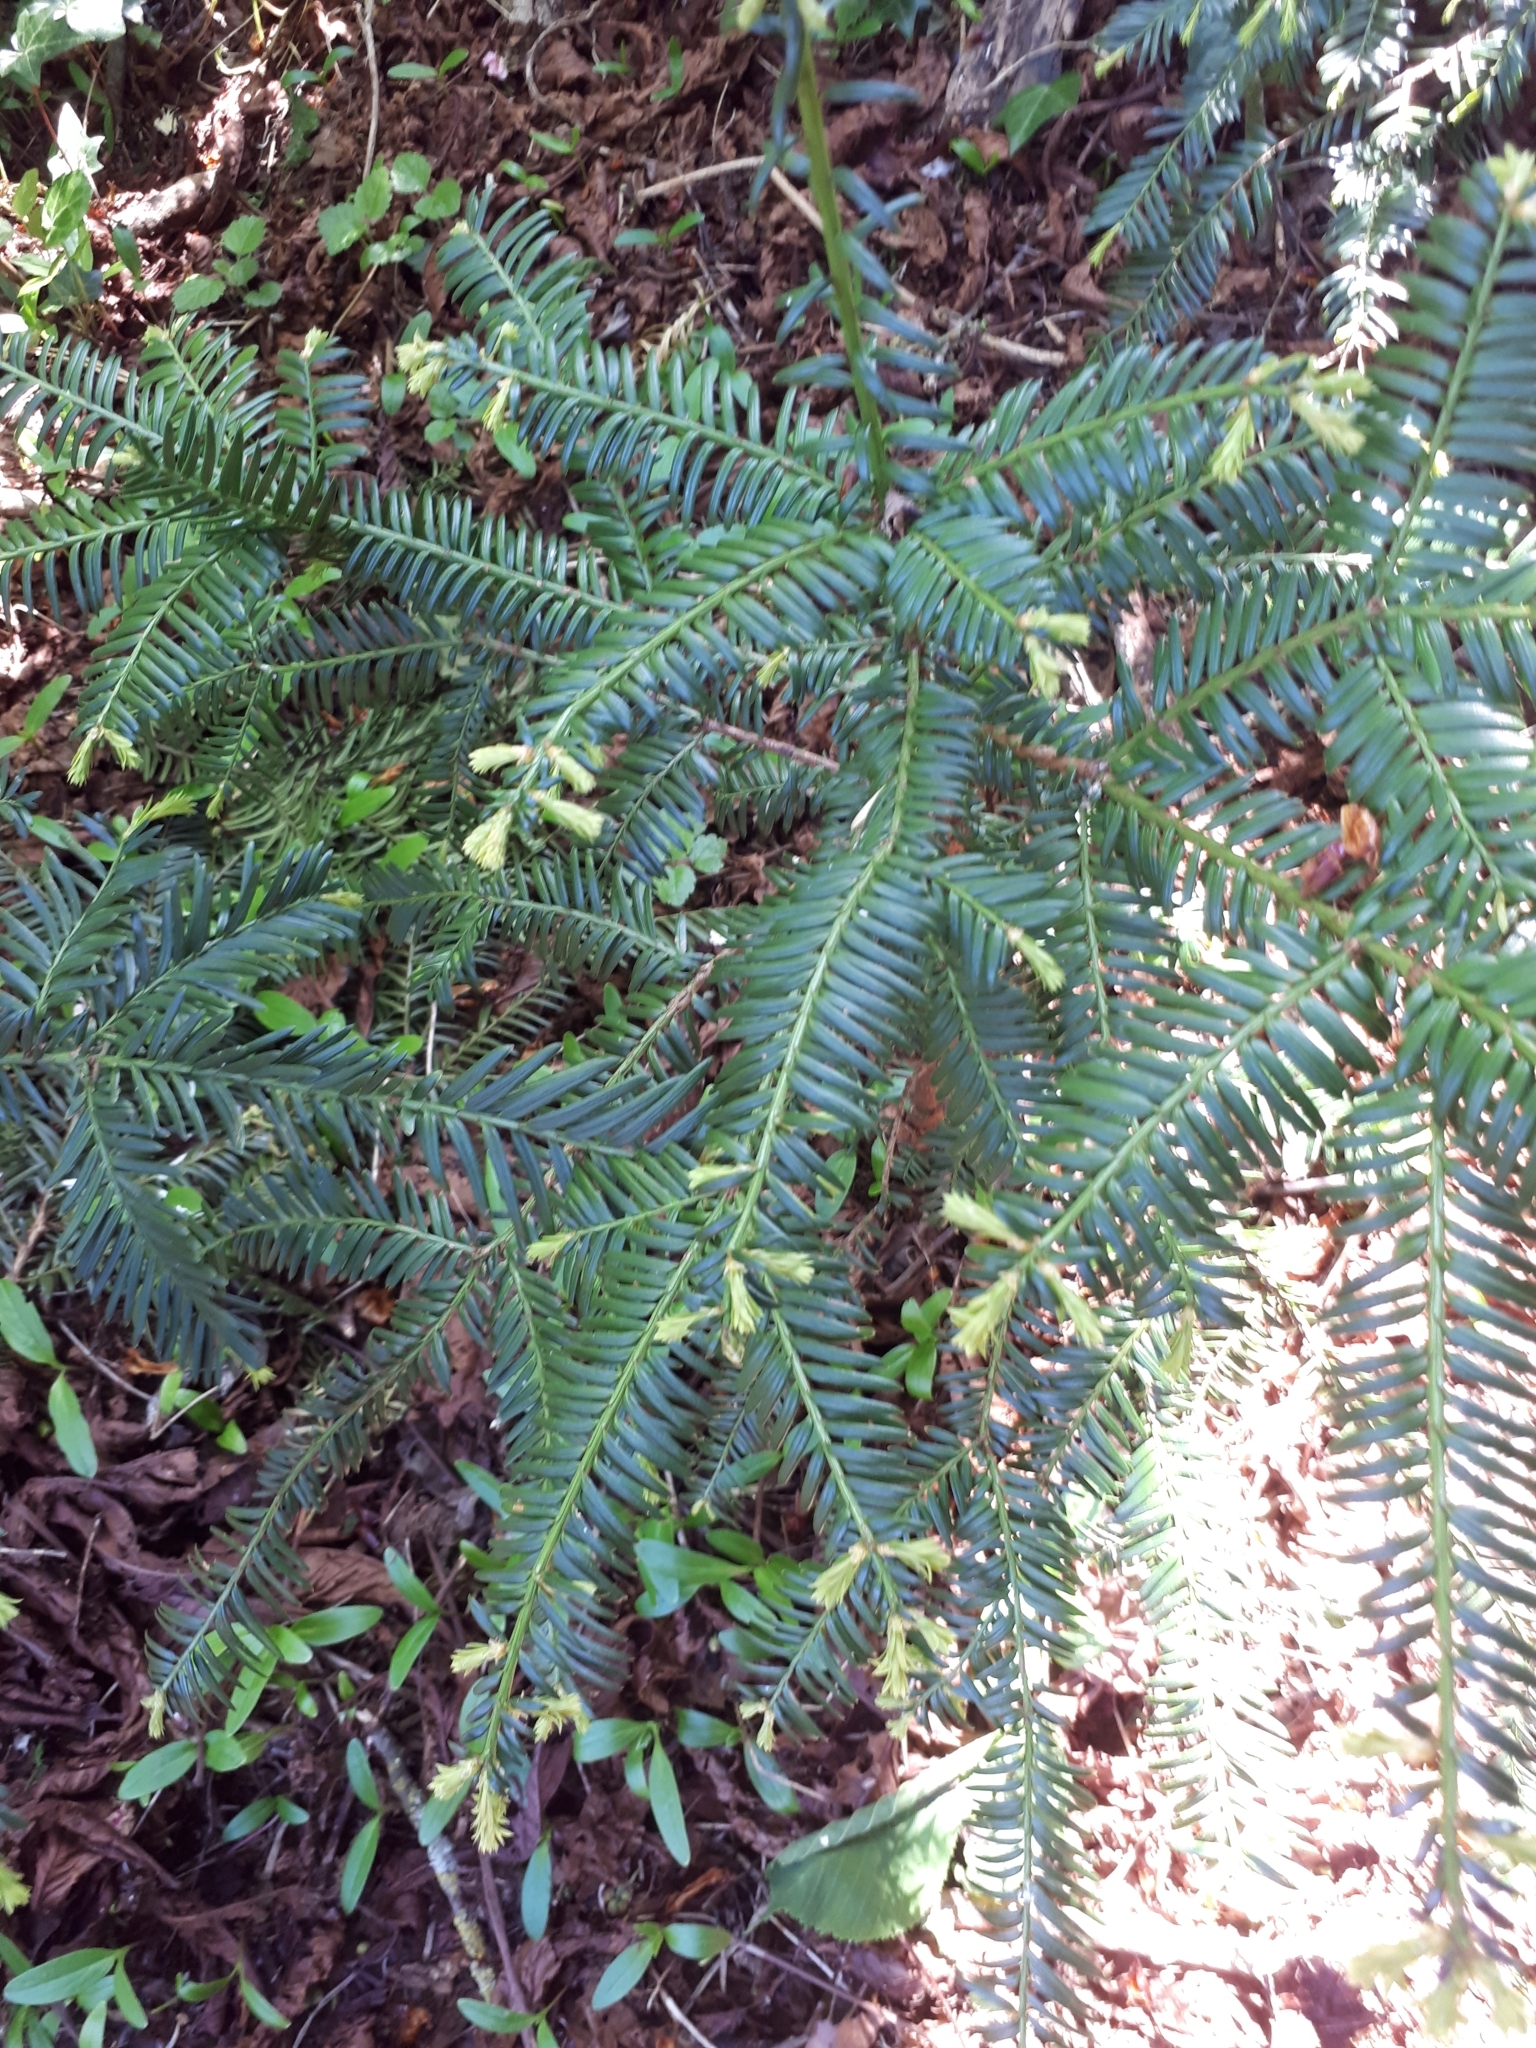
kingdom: Plantae
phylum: Tracheophyta
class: Pinopsida
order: Pinales
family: Taxaceae
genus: Taxus
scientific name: Taxus baccata
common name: Yew
